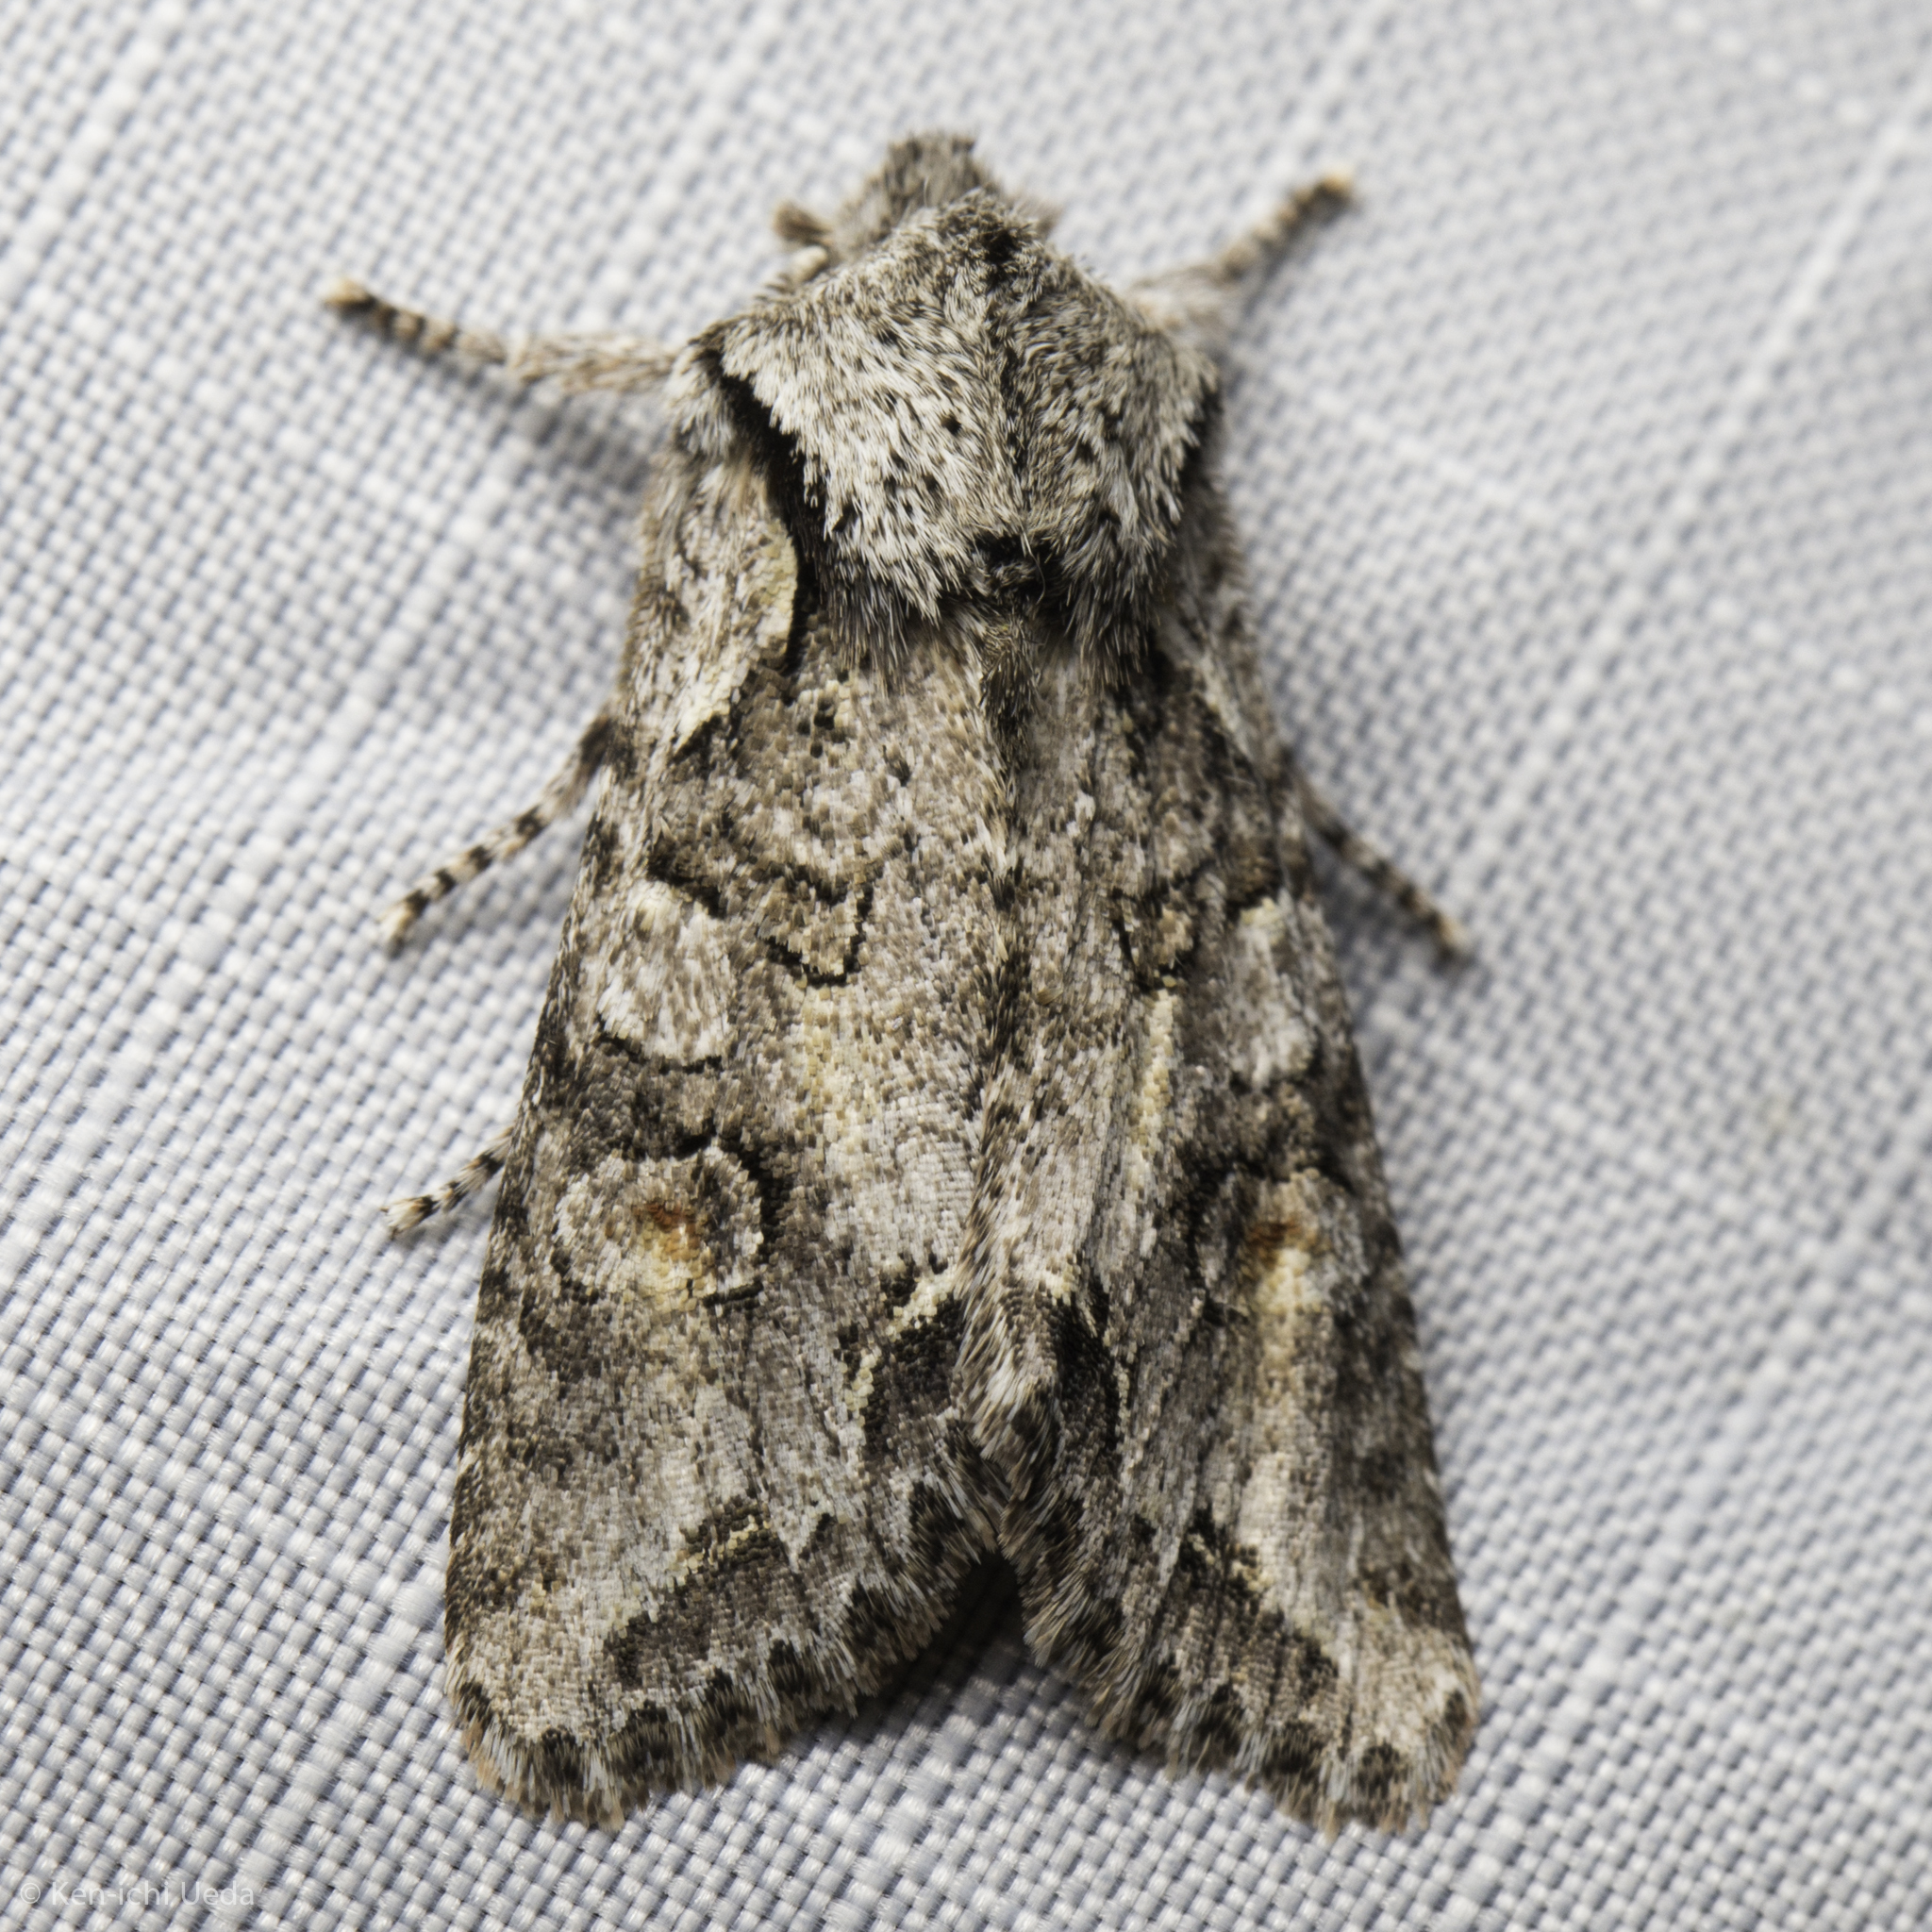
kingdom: Animalia
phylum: Arthropoda
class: Insecta
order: Lepidoptera
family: Noctuidae
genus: Egira
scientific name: Egira hiemalis
